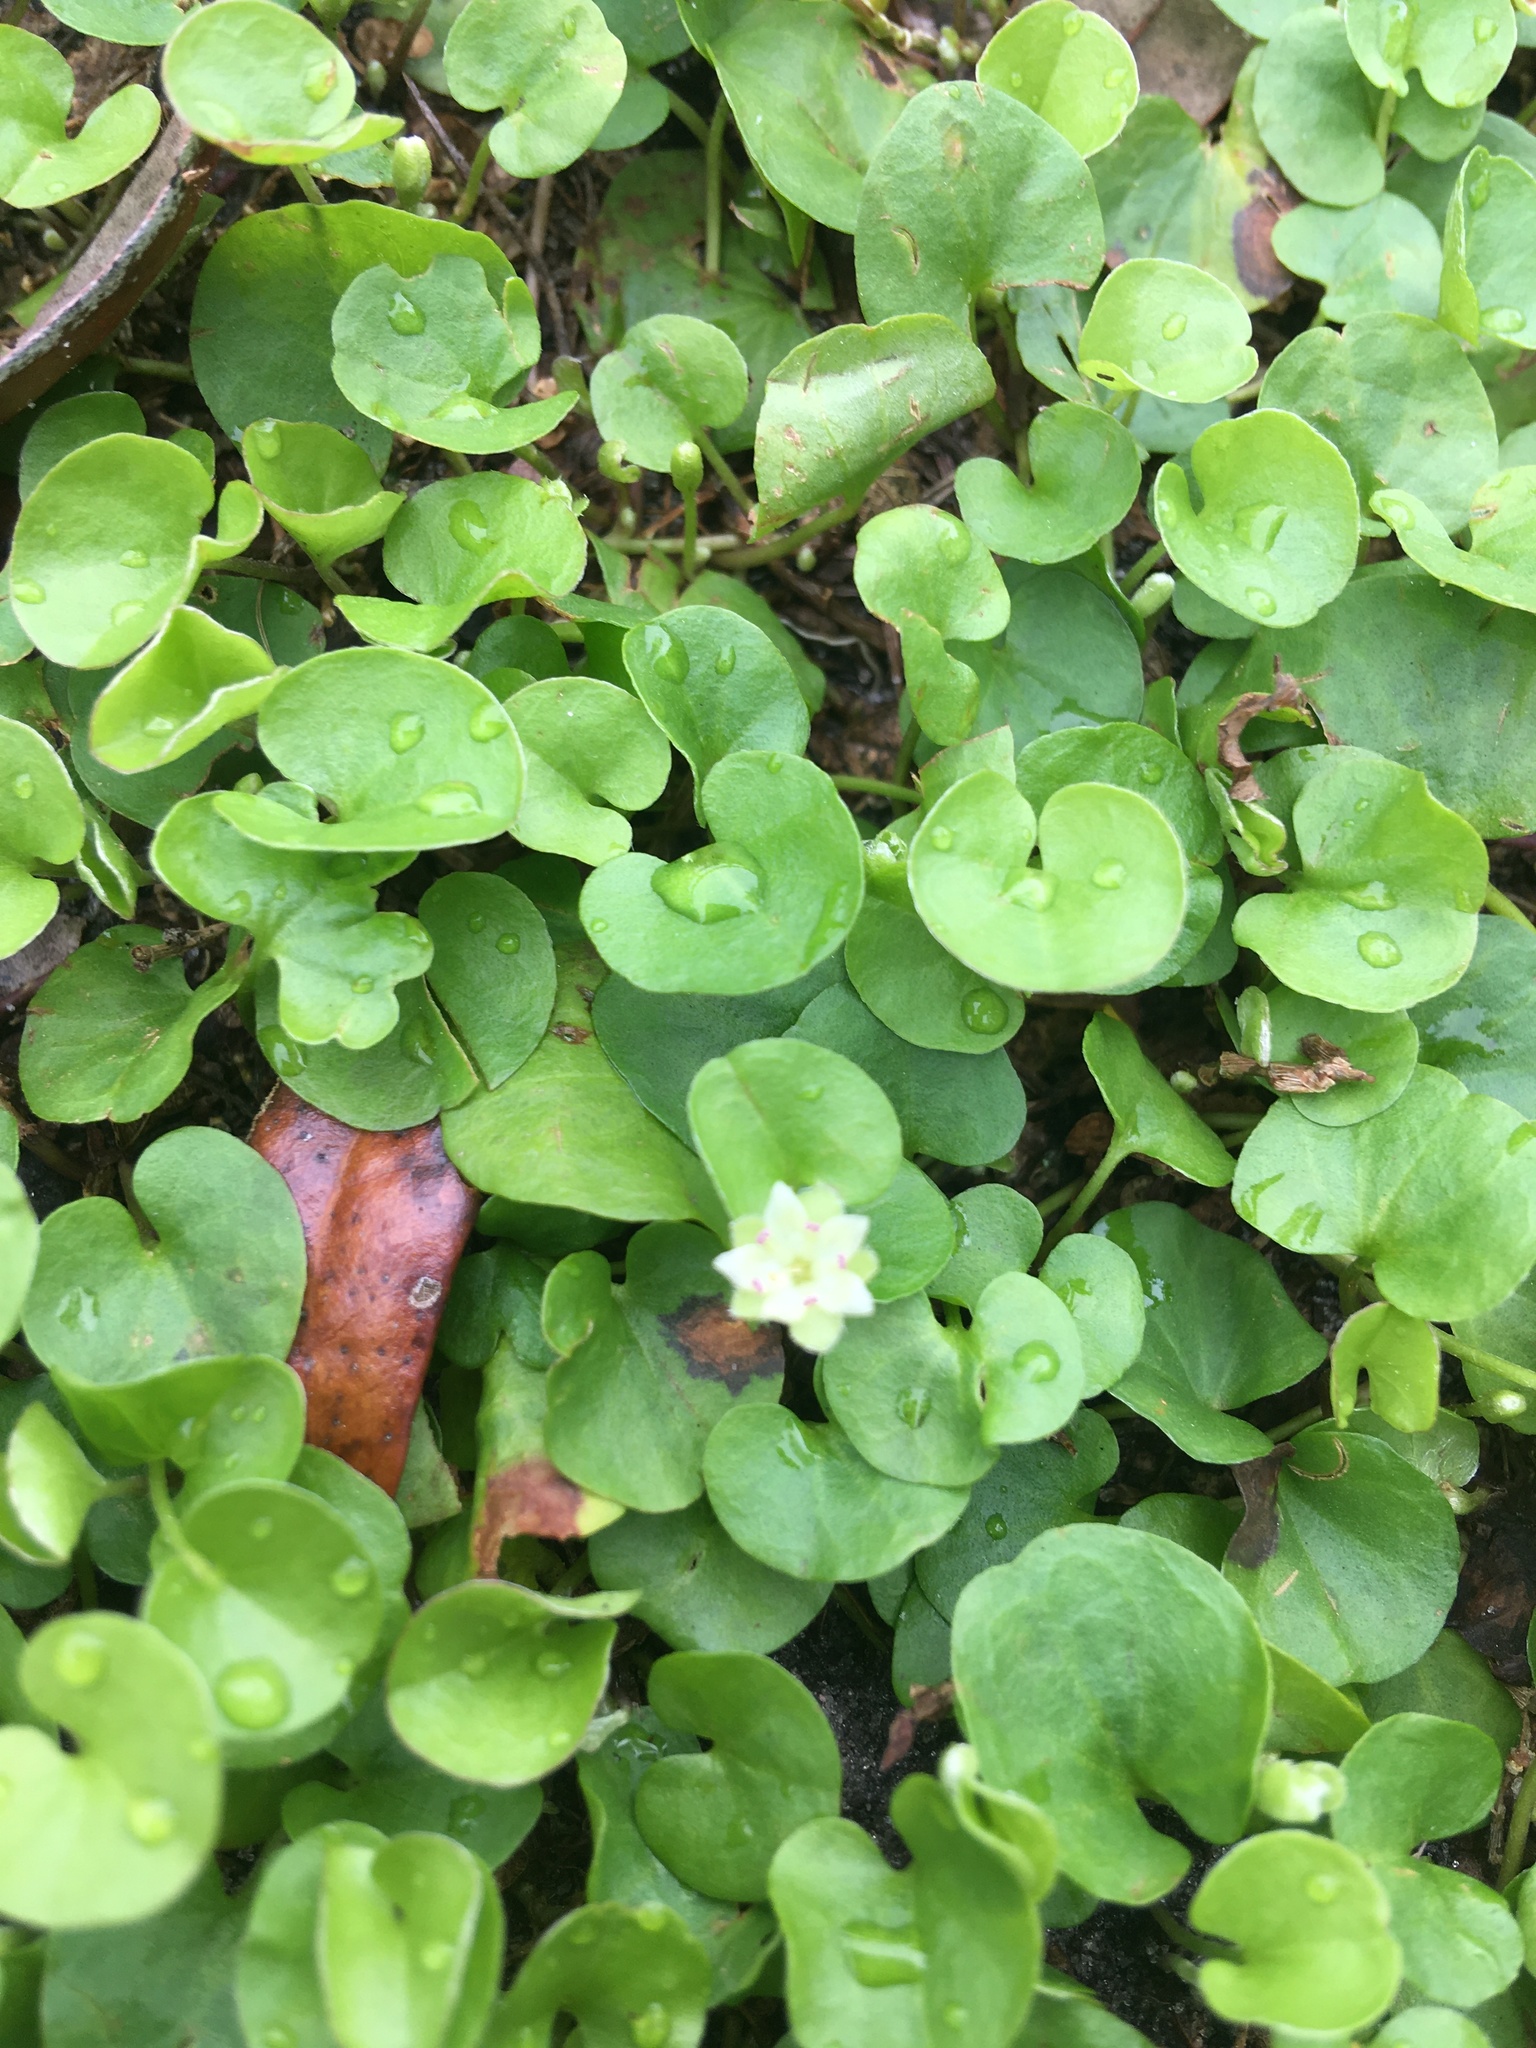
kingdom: Plantae
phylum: Tracheophyta
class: Magnoliopsida
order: Solanales
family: Convolvulaceae
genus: Dichondra
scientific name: Dichondra carolinensis
